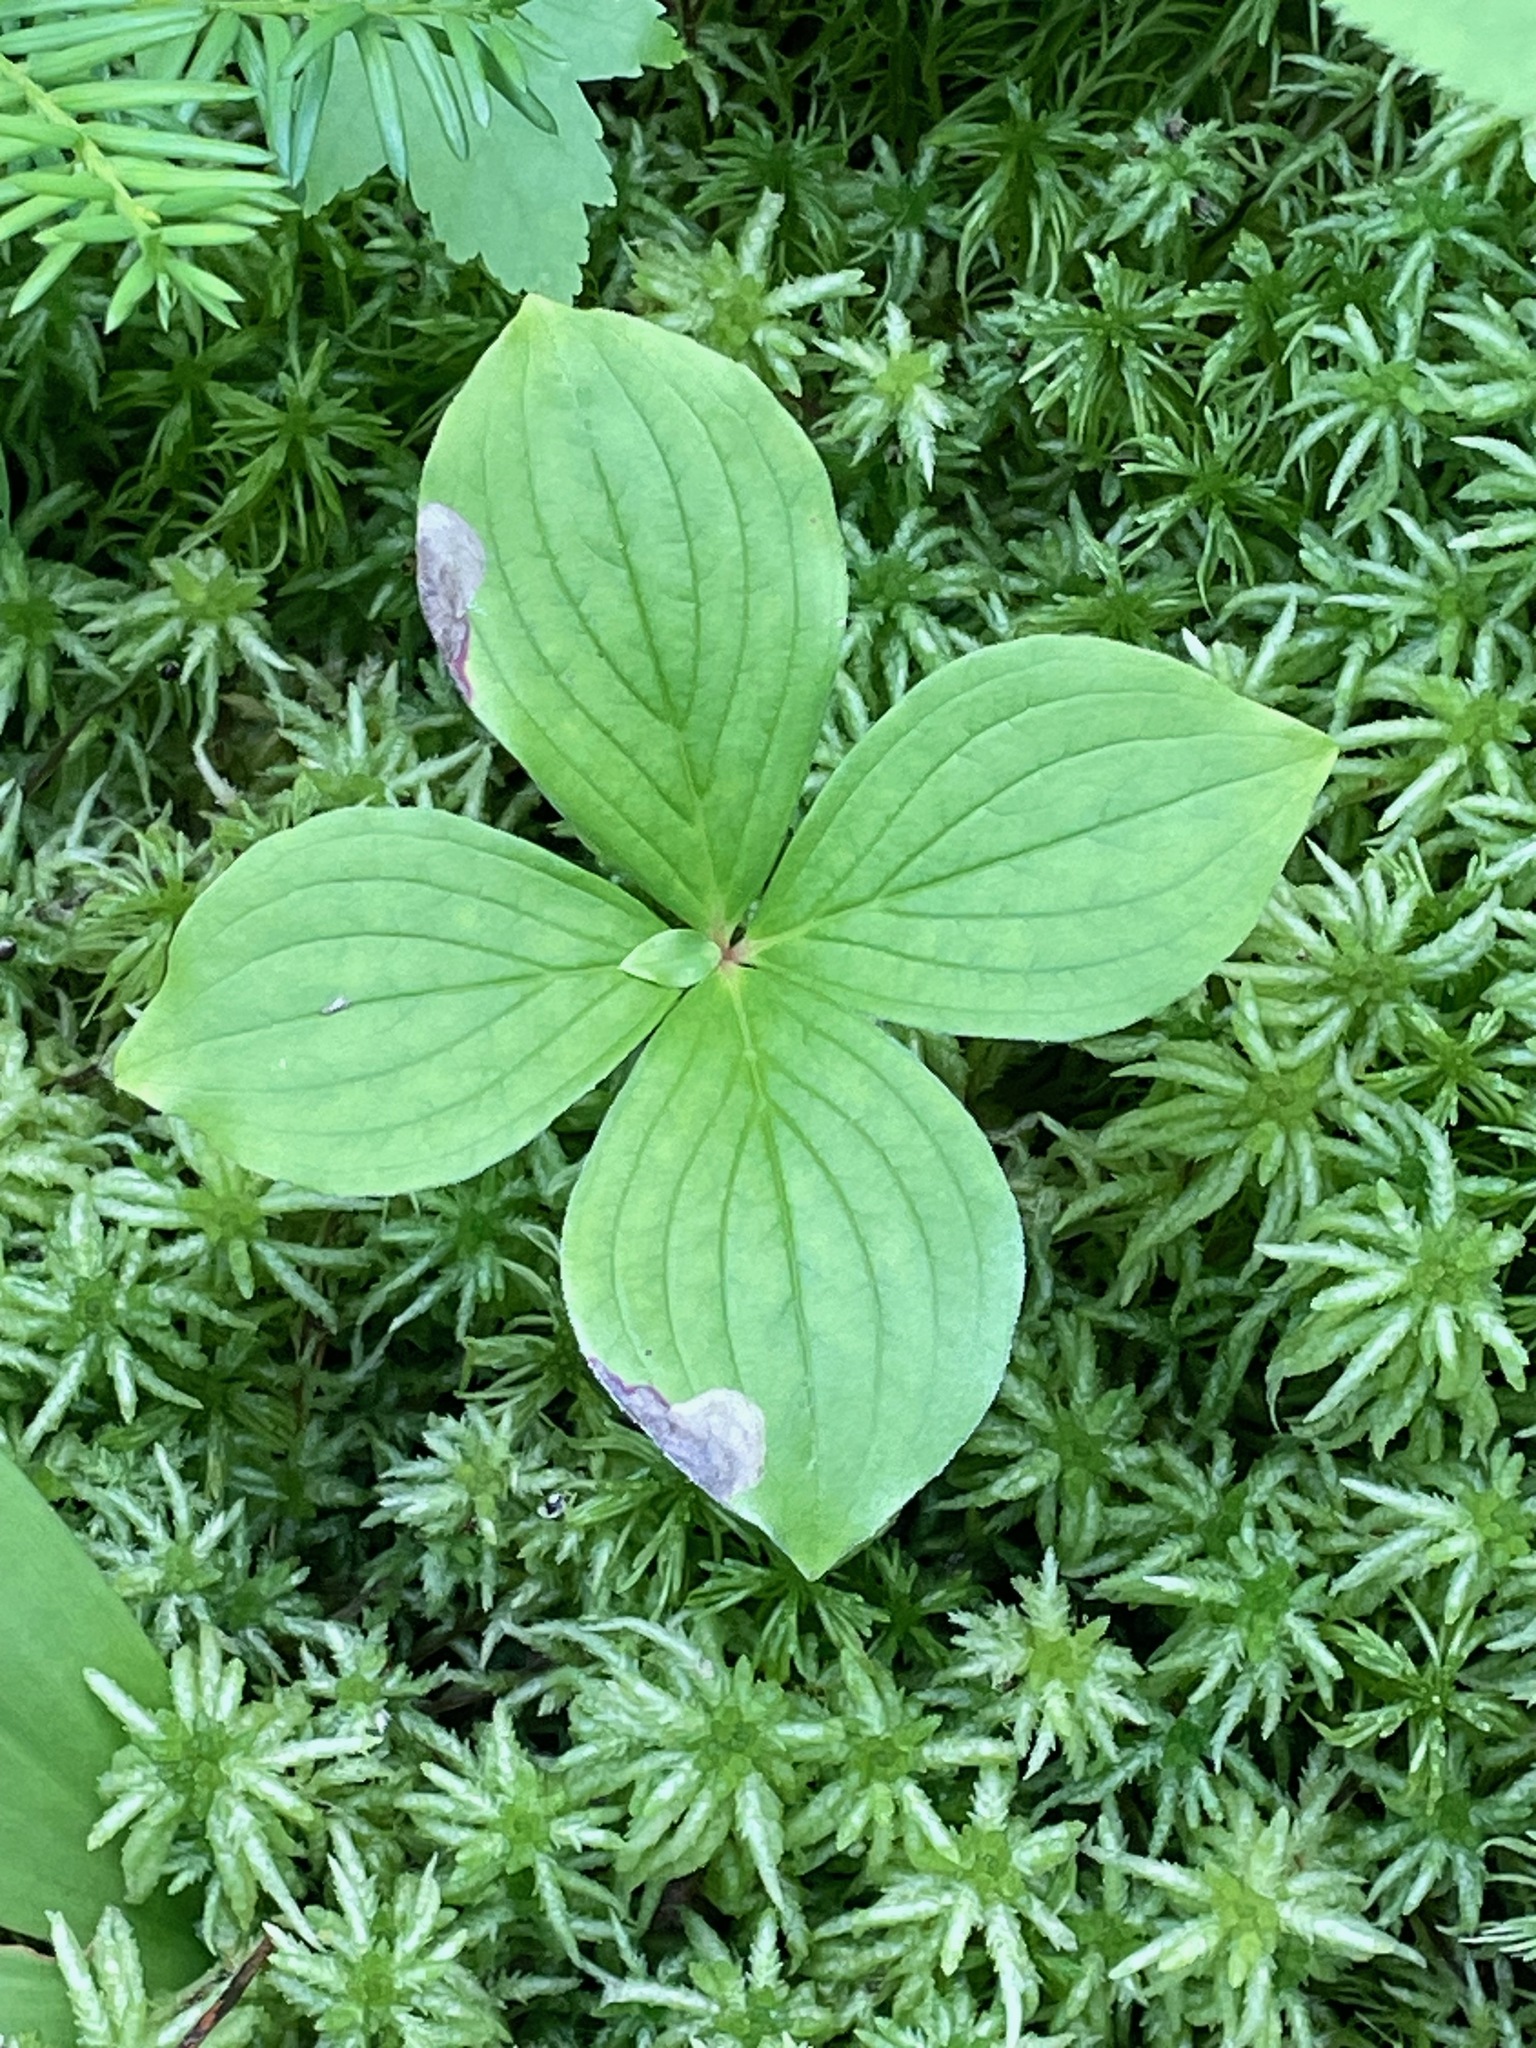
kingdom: Plantae
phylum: Tracheophyta
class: Magnoliopsida
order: Cornales
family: Cornaceae
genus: Cornus
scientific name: Cornus canadensis
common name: Creeping dogwood
